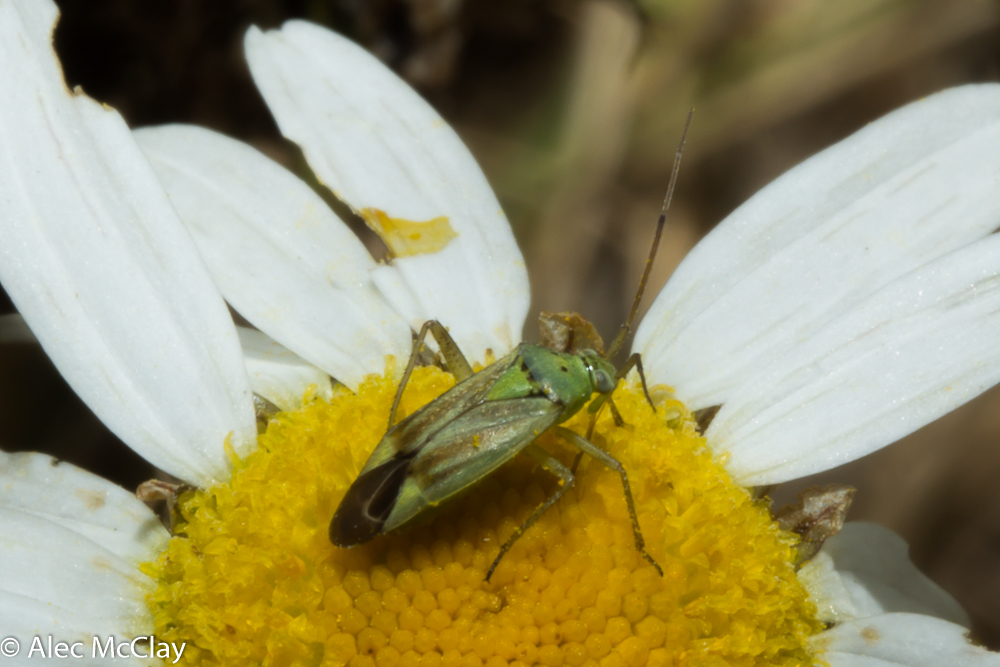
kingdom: Animalia
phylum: Arthropoda
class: Insecta
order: Hemiptera
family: Miridae
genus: Closterotomus
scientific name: Closterotomus norvegicus
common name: Plant bug
